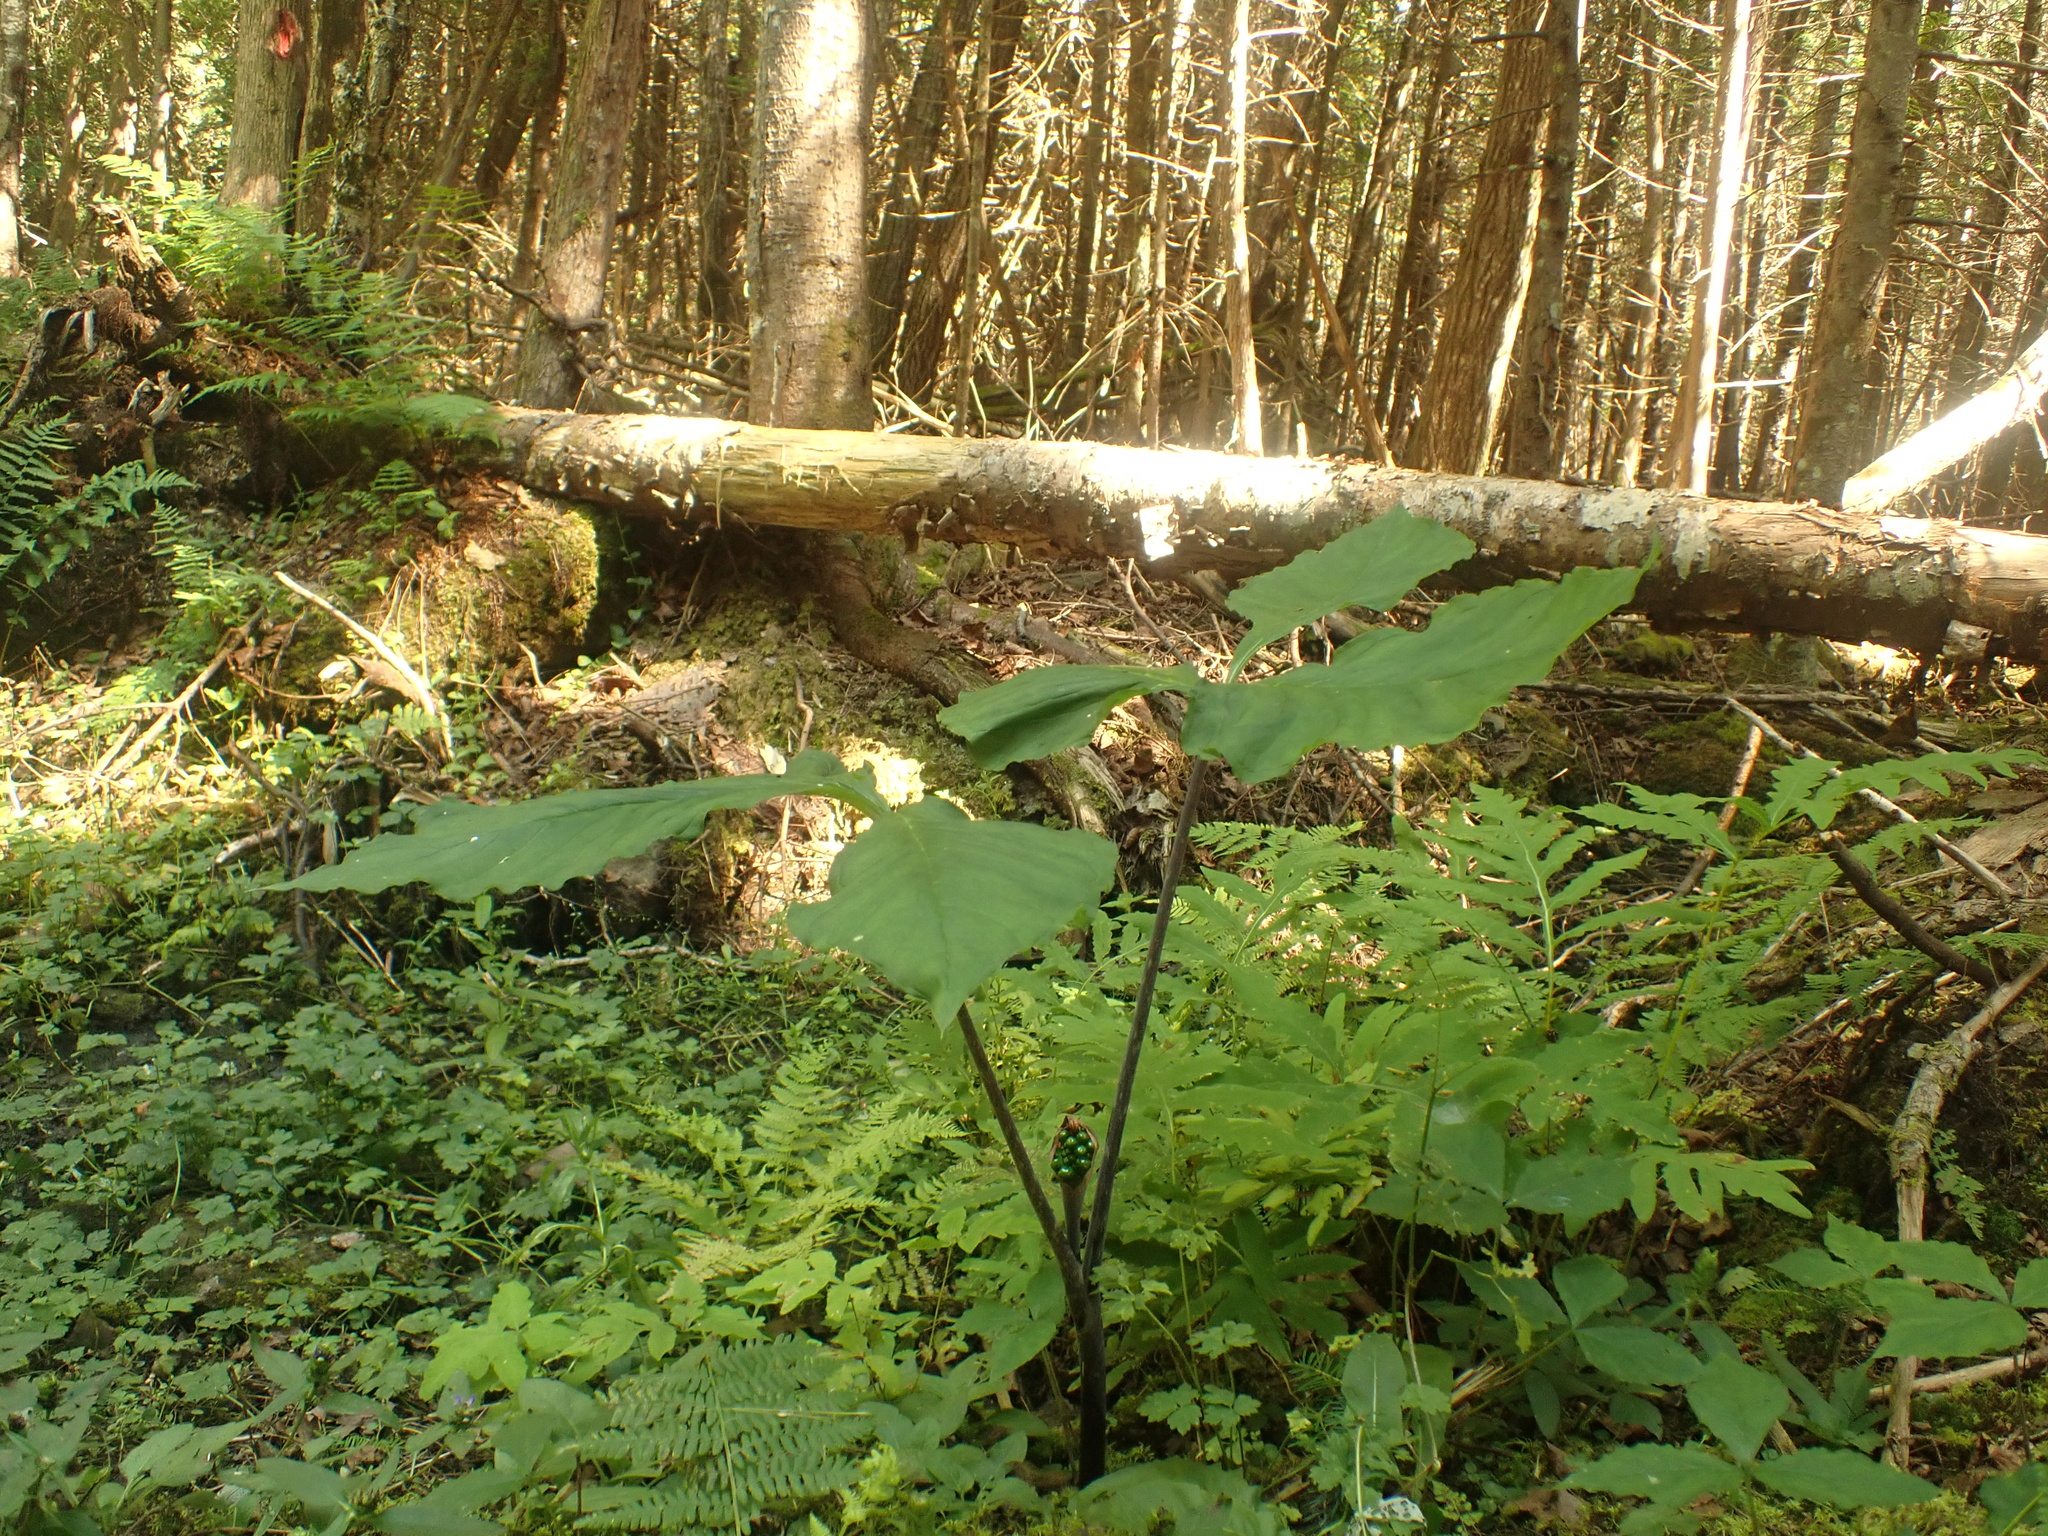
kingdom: Plantae
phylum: Tracheophyta
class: Liliopsida
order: Alismatales
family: Araceae
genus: Arisaema
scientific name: Arisaema triphyllum
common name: Jack-in-the-pulpit
